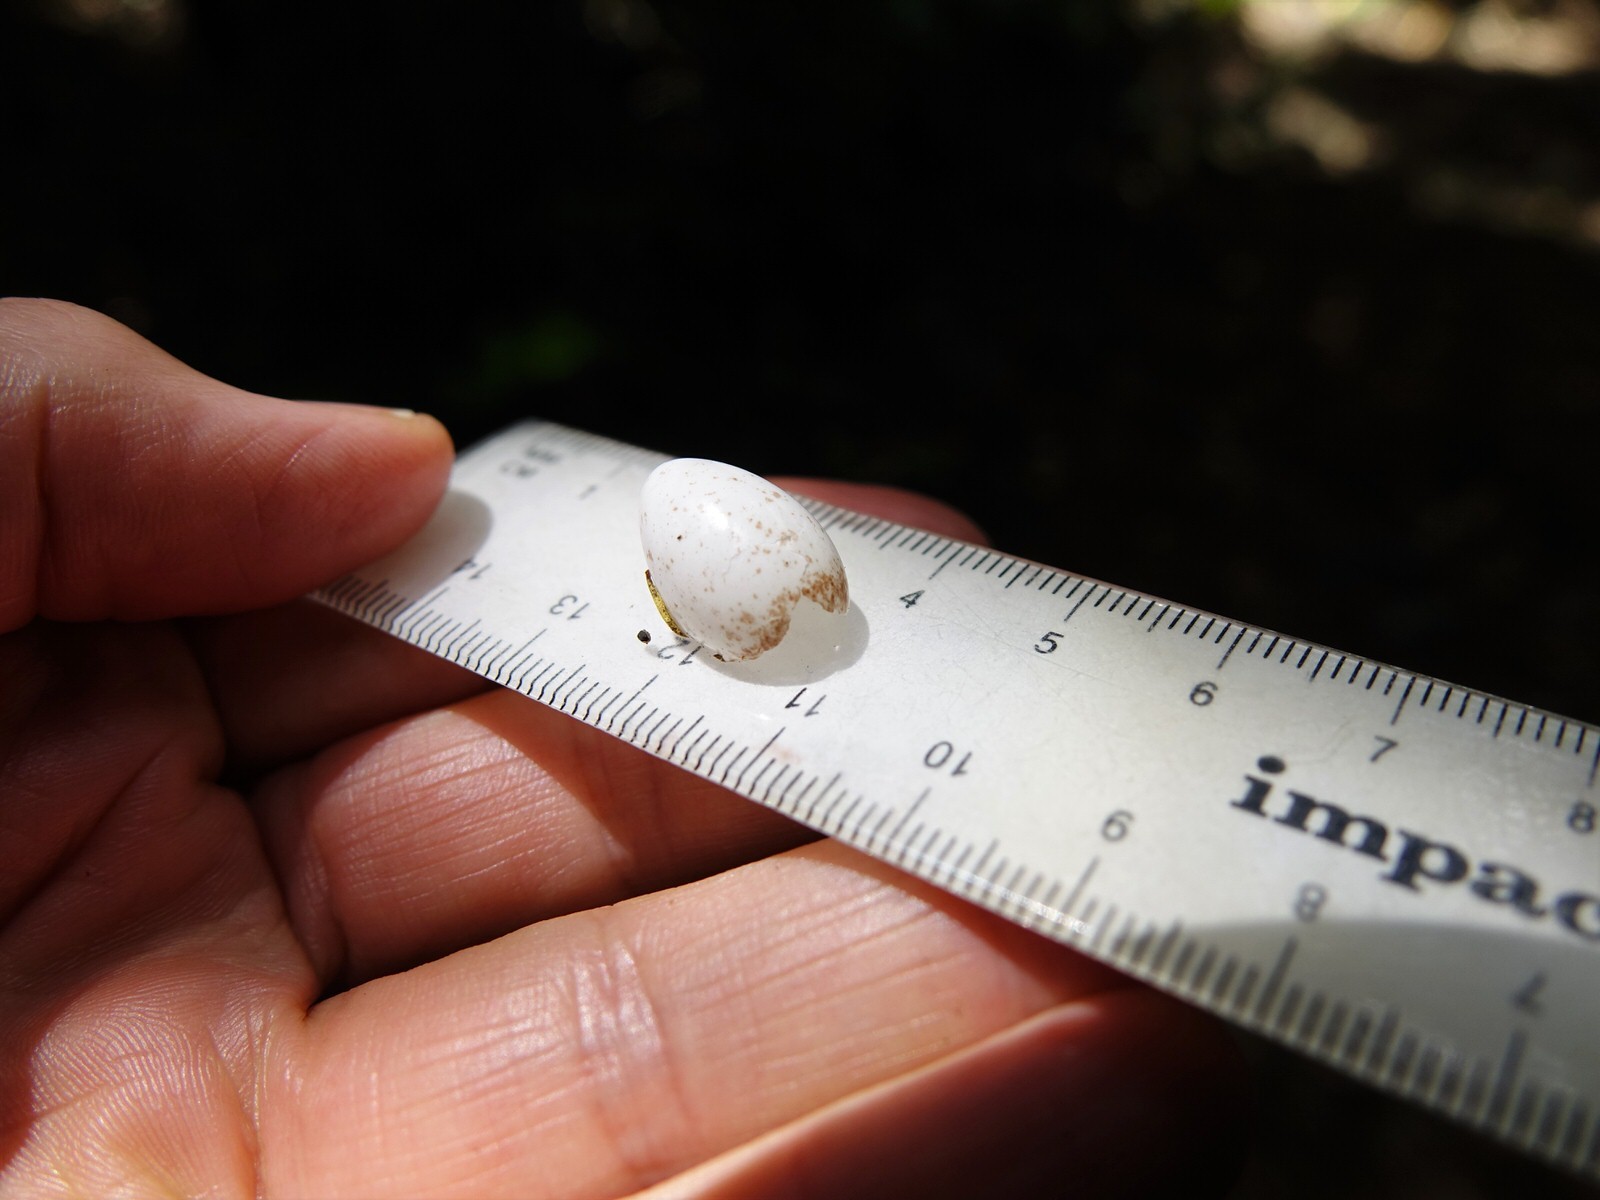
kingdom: Animalia
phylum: Chordata
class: Aves
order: Passeriformes
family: Acanthizidae
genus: Gerygone
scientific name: Gerygone igata
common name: Grey gerygone
